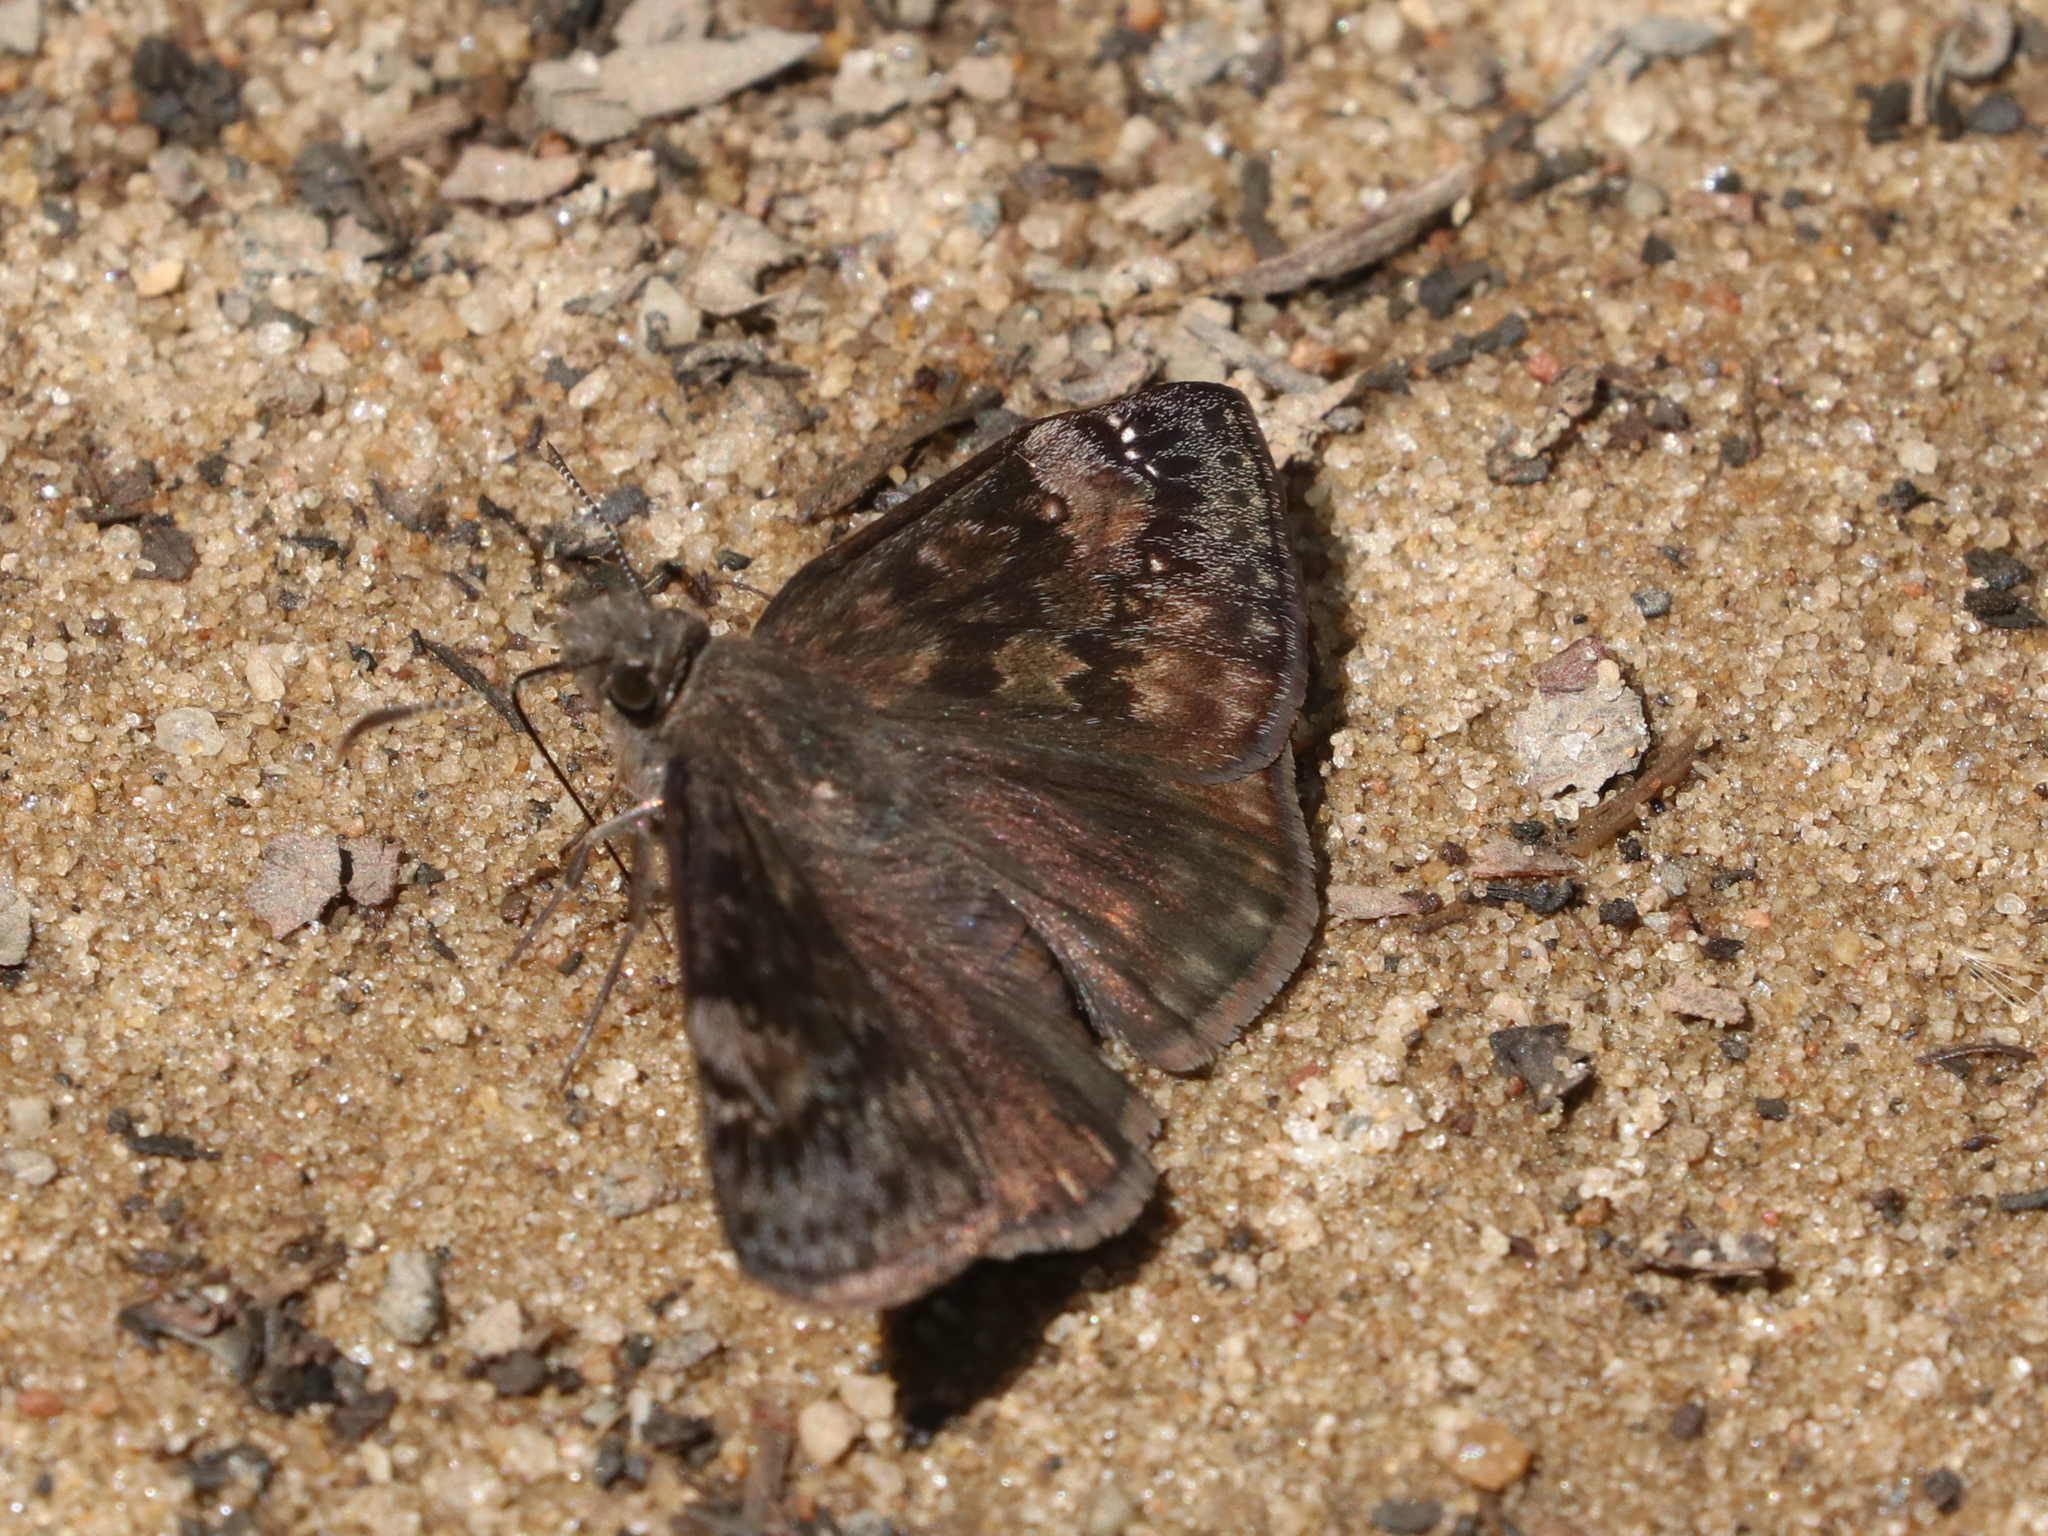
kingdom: Animalia
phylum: Arthropoda
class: Insecta
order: Lepidoptera
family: Hesperiidae
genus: Erynnis
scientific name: Erynnis baptisiae
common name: Wild indigo duskywing
